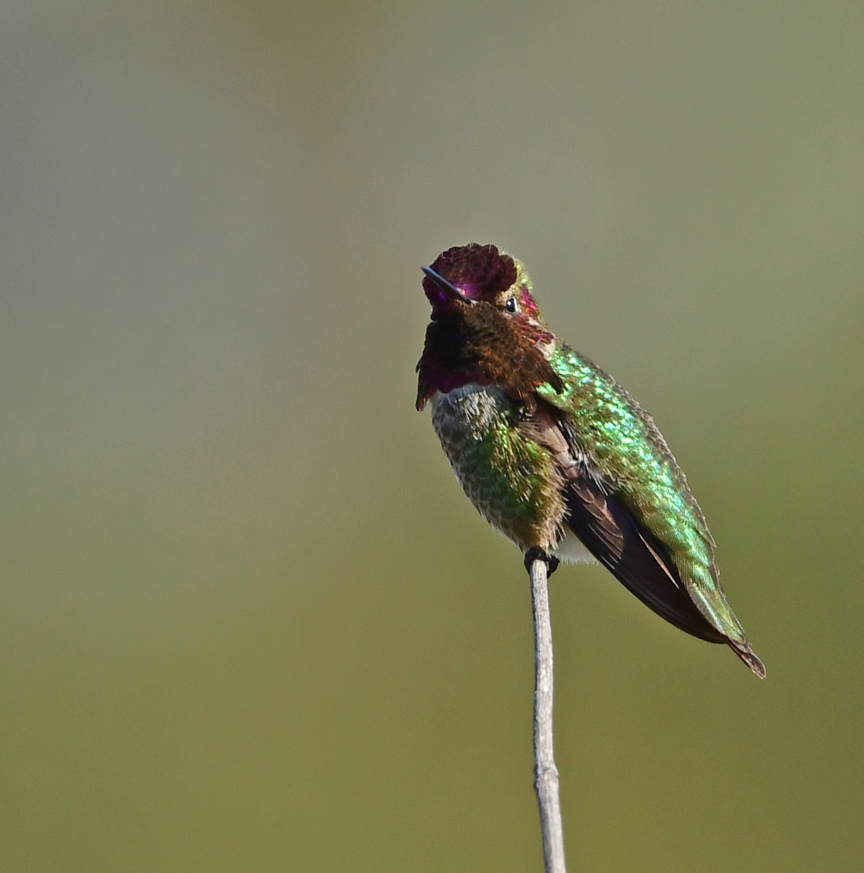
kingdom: Animalia
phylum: Chordata
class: Aves
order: Apodiformes
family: Trochilidae
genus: Calypte
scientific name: Calypte anna
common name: Anna's hummingbird
